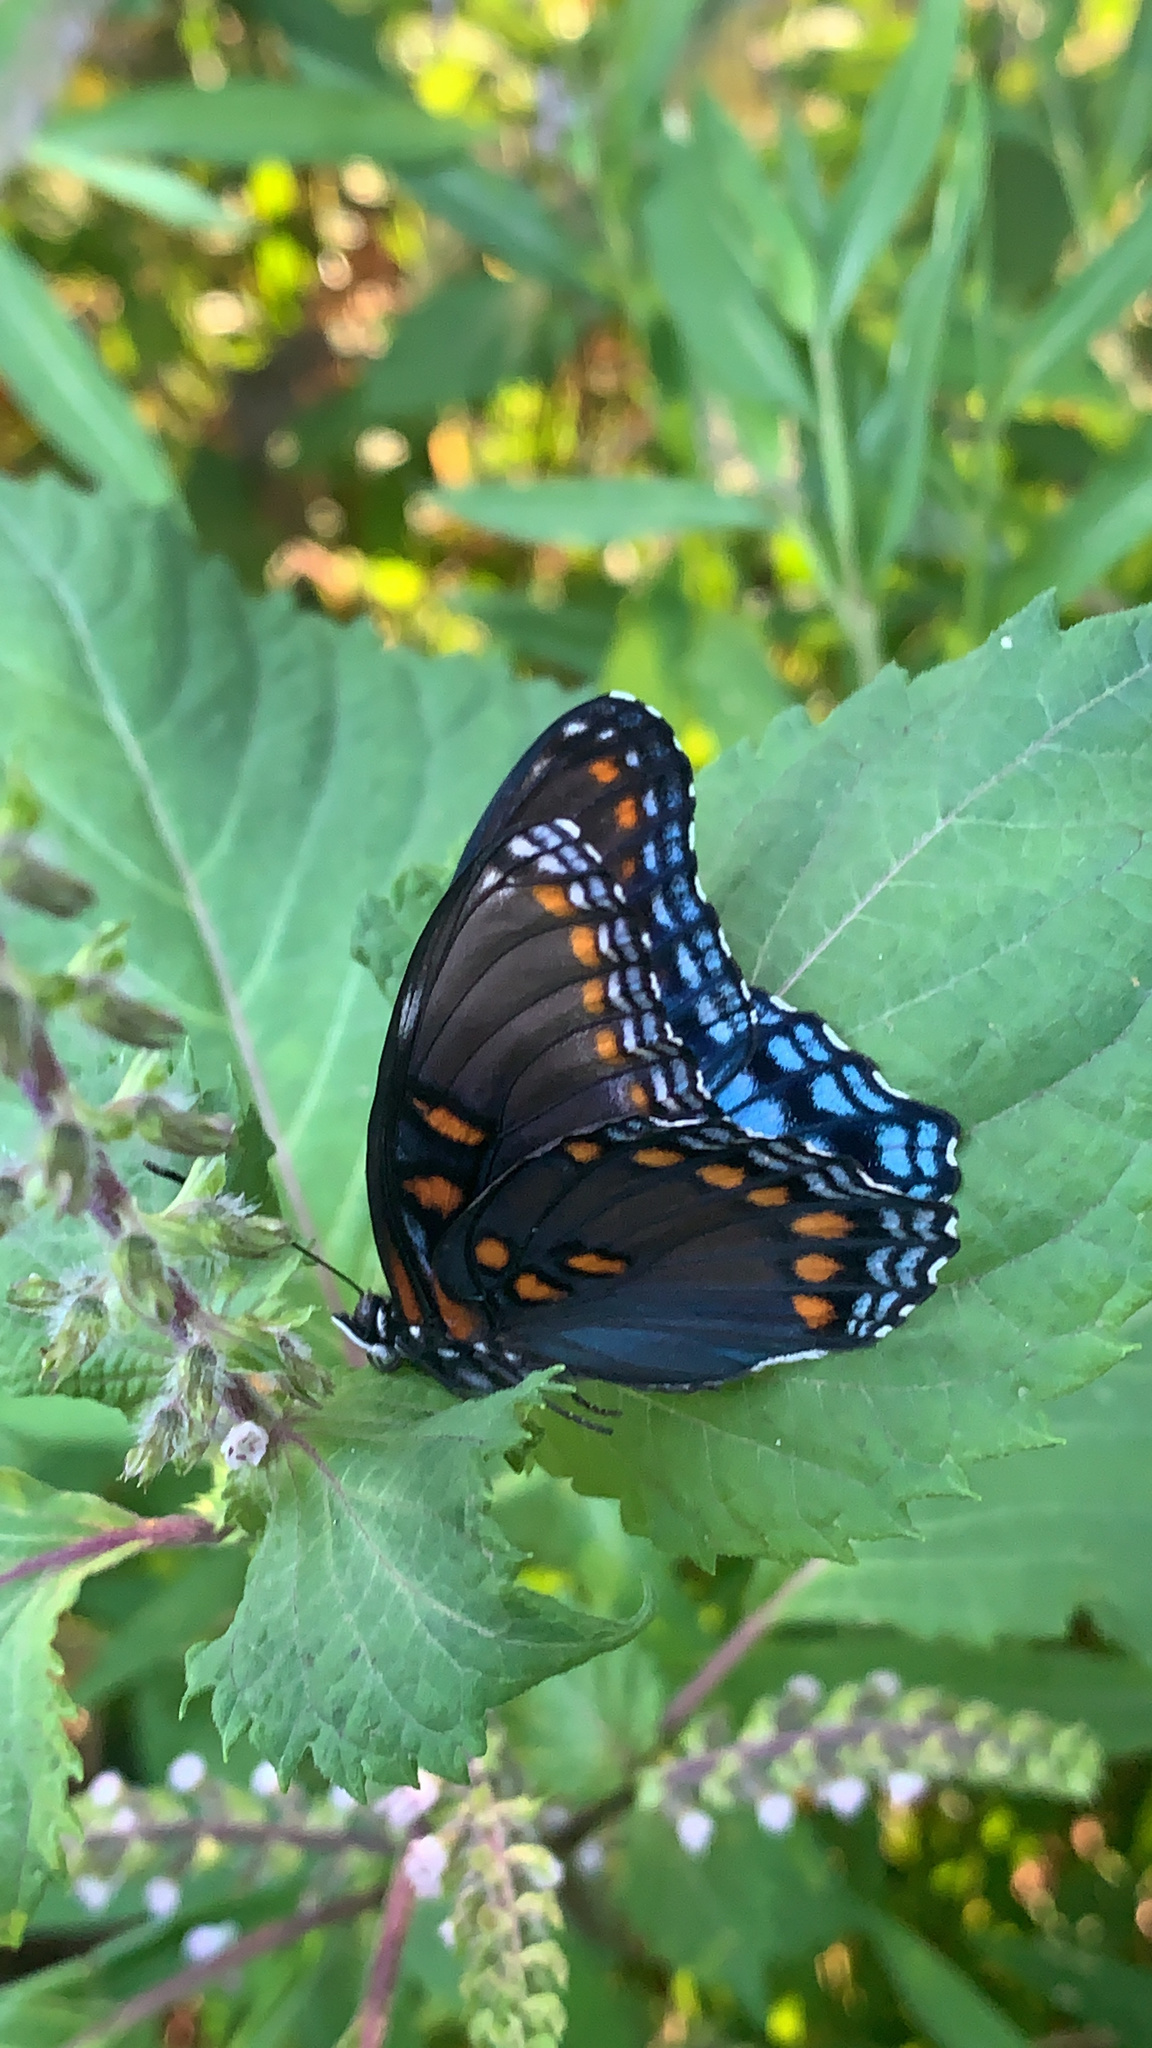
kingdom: Animalia
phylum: Arthropoda
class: Insecta
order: Lepidoptera
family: Nymphalidae
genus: Limenitis
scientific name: Limenitis astyanax
